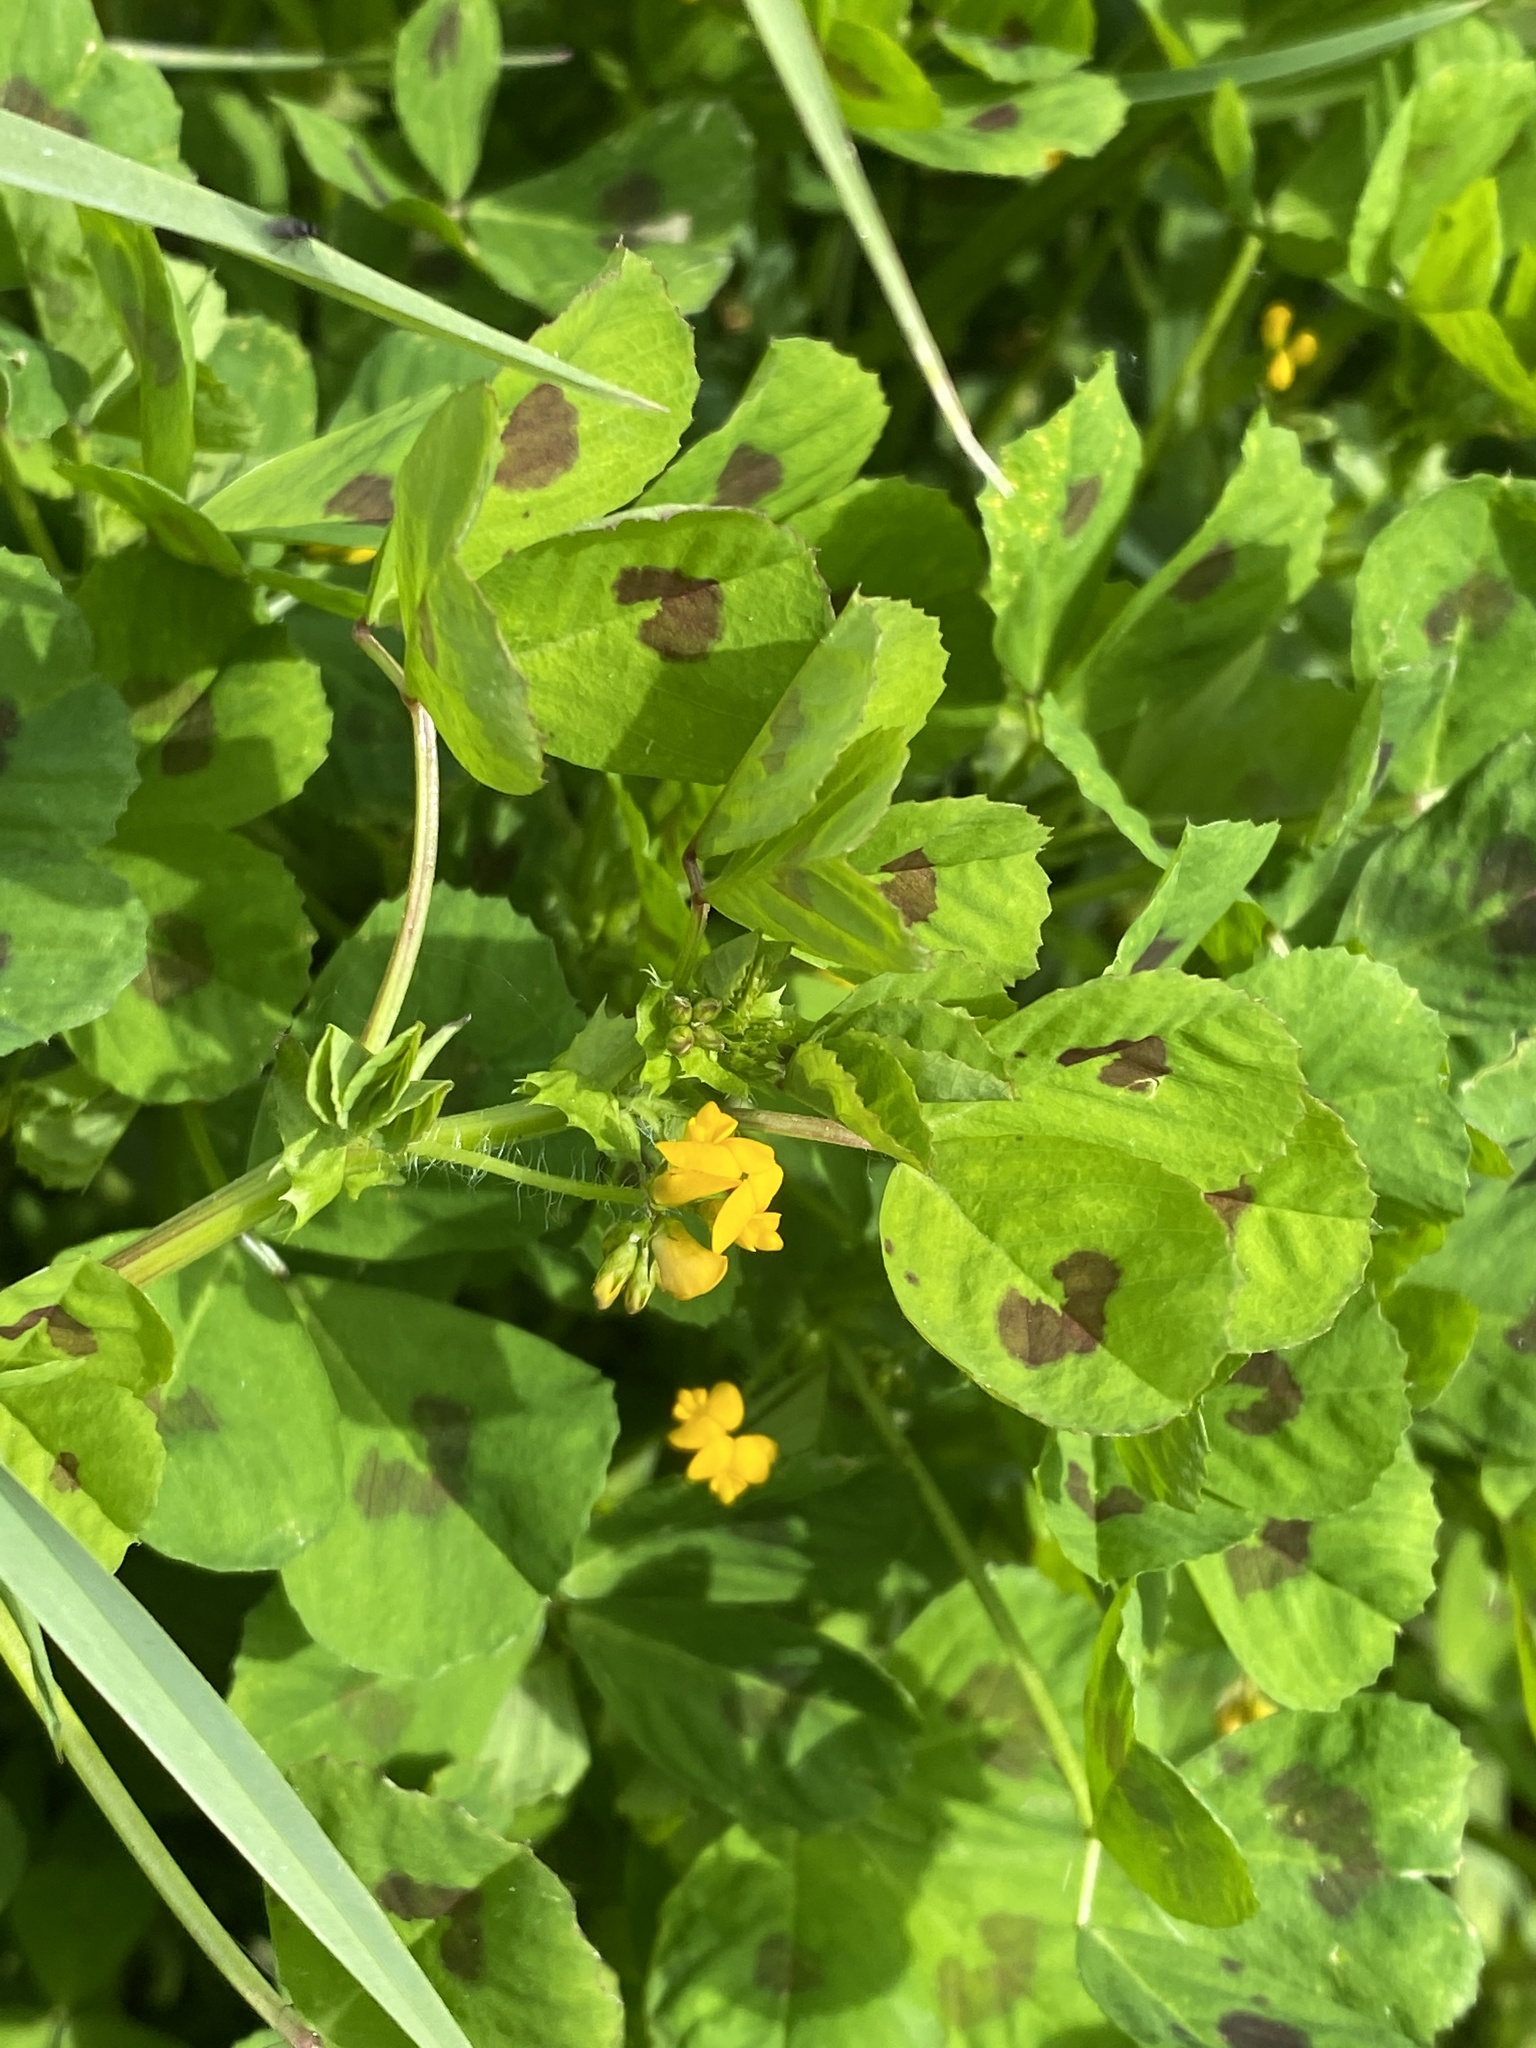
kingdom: Plantae
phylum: Tracheophyta
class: Magnoliopsida
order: Fabales
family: Fabaceae
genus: Medicago
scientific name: Medicago arabica
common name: Spotted medick
